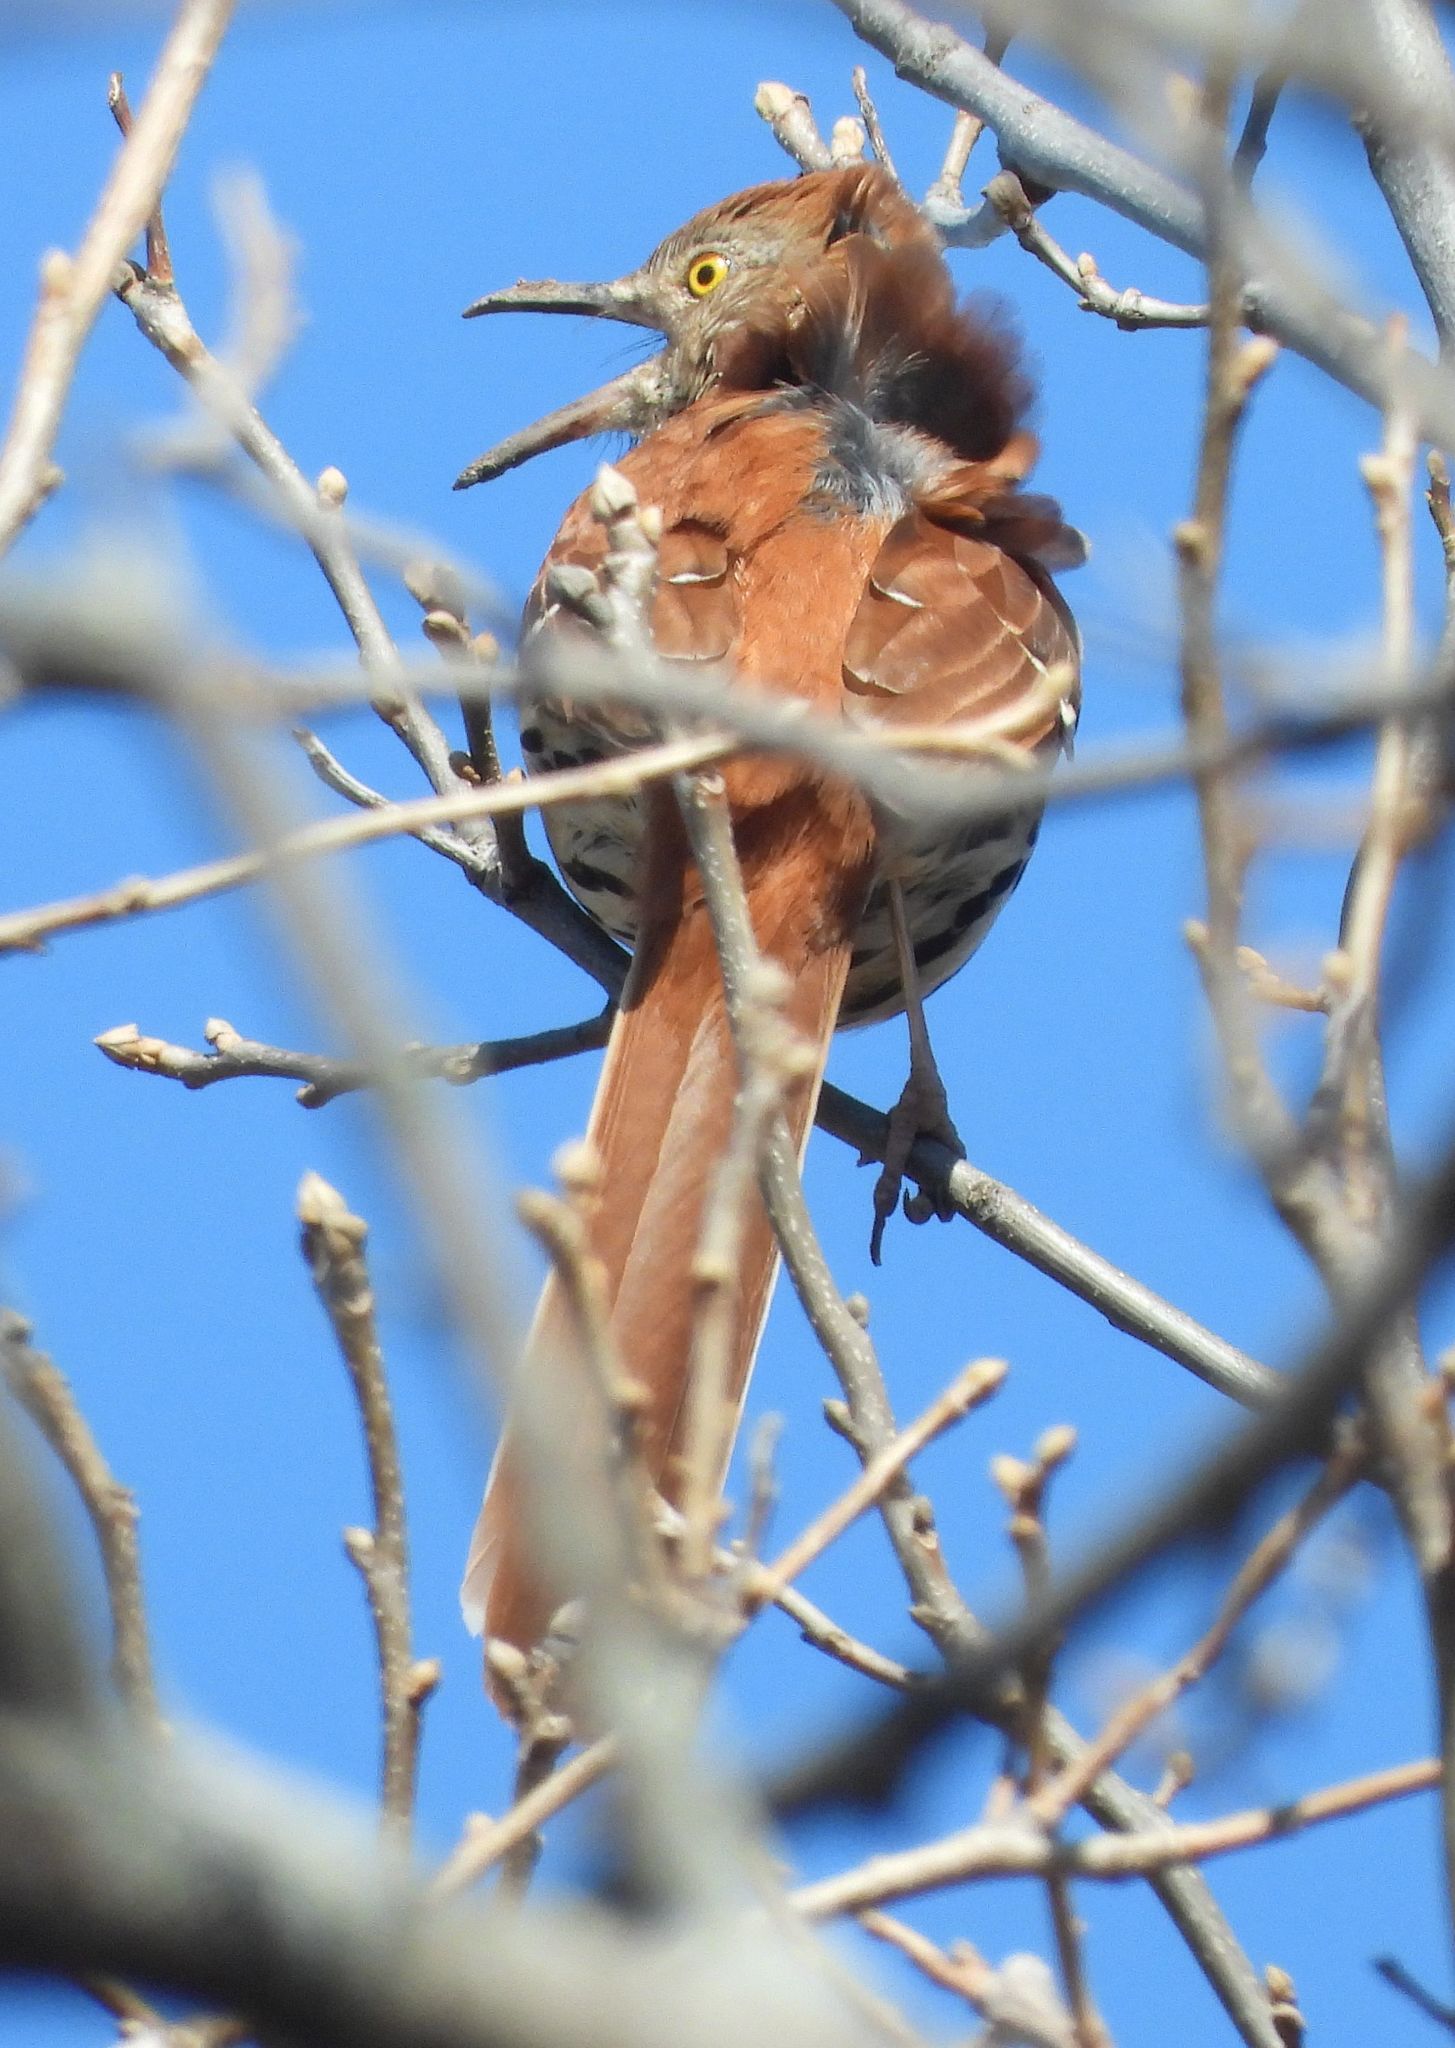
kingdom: Animalia
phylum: Chordata
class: Aves
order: Passeriformes
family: Mimidae
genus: Toxostoma
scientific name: Toxostoma rufum
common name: Brown thrasher
